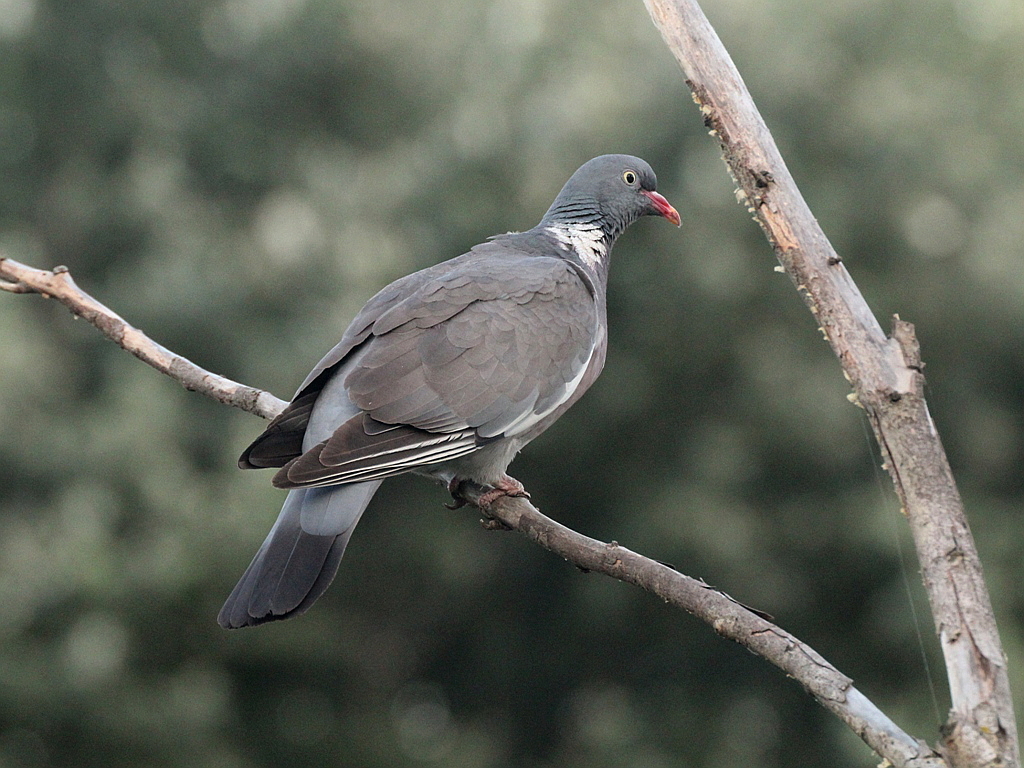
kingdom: Animalia
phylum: Chordata
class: Aves
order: Columbiformes
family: Columbidae
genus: Columba
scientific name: Columba palumbus
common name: Common wood pigeon
